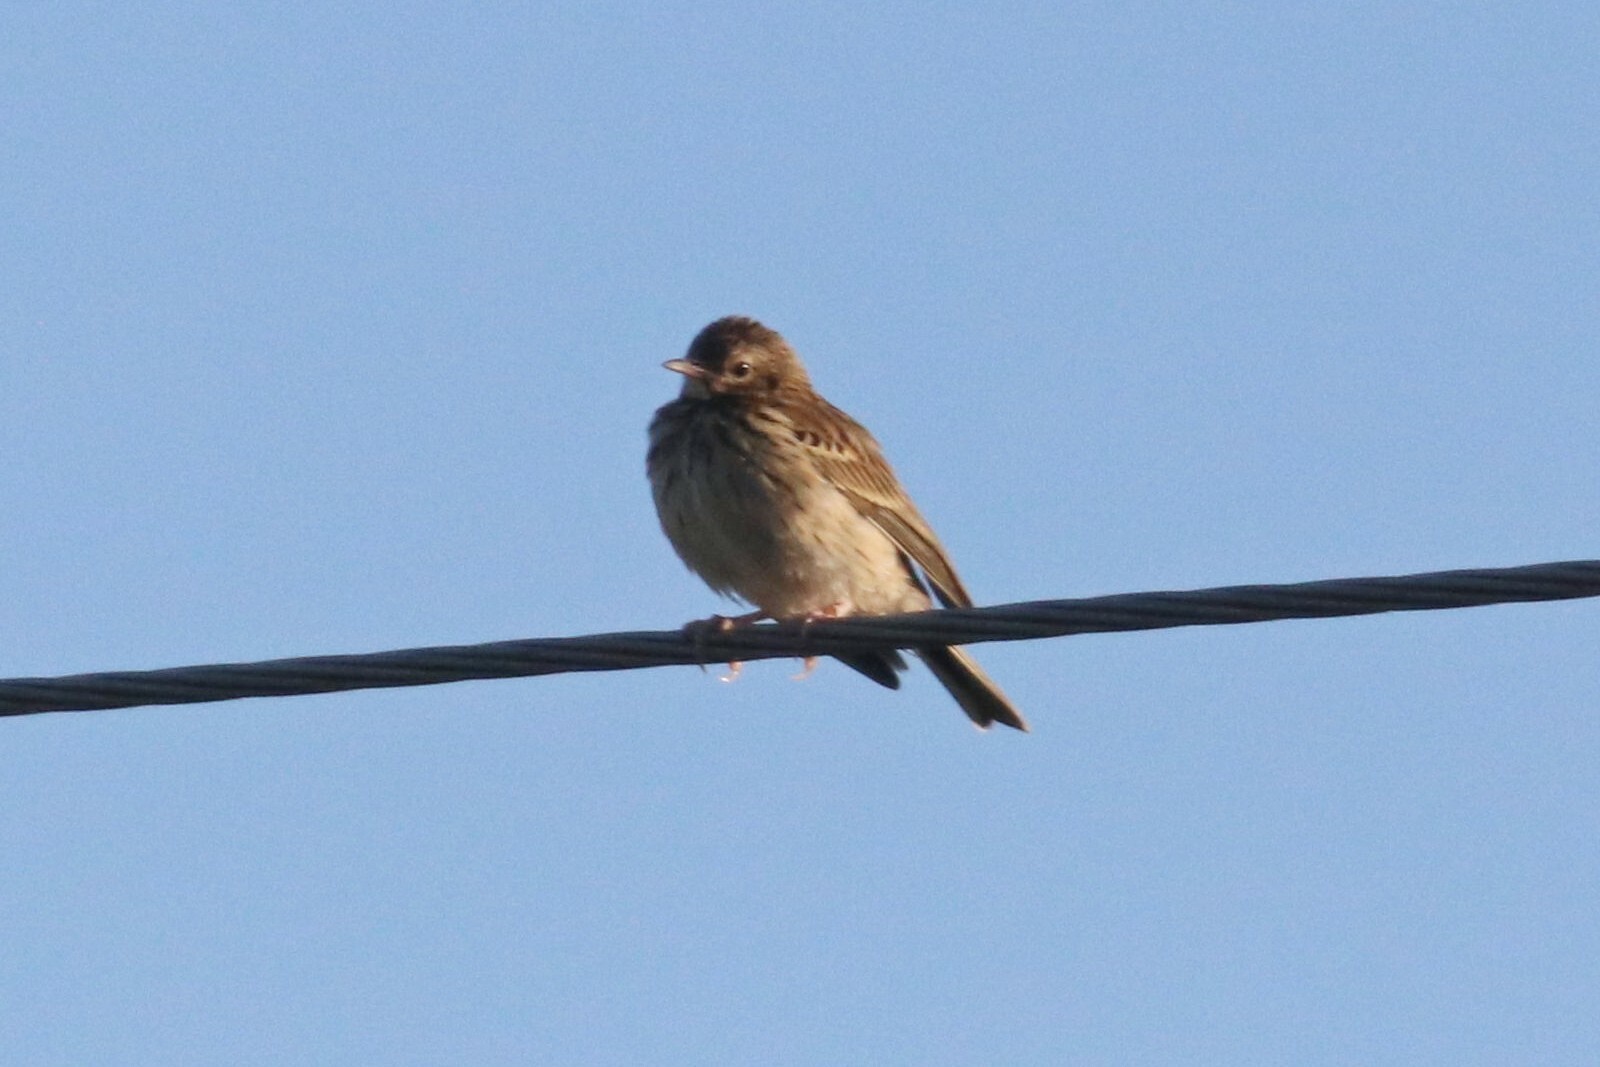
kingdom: Animalia
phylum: Chordata
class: Aves
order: Passeriformes
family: Motacillidae
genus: Anthus
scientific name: Anthus trivialis
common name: Tree pipit
